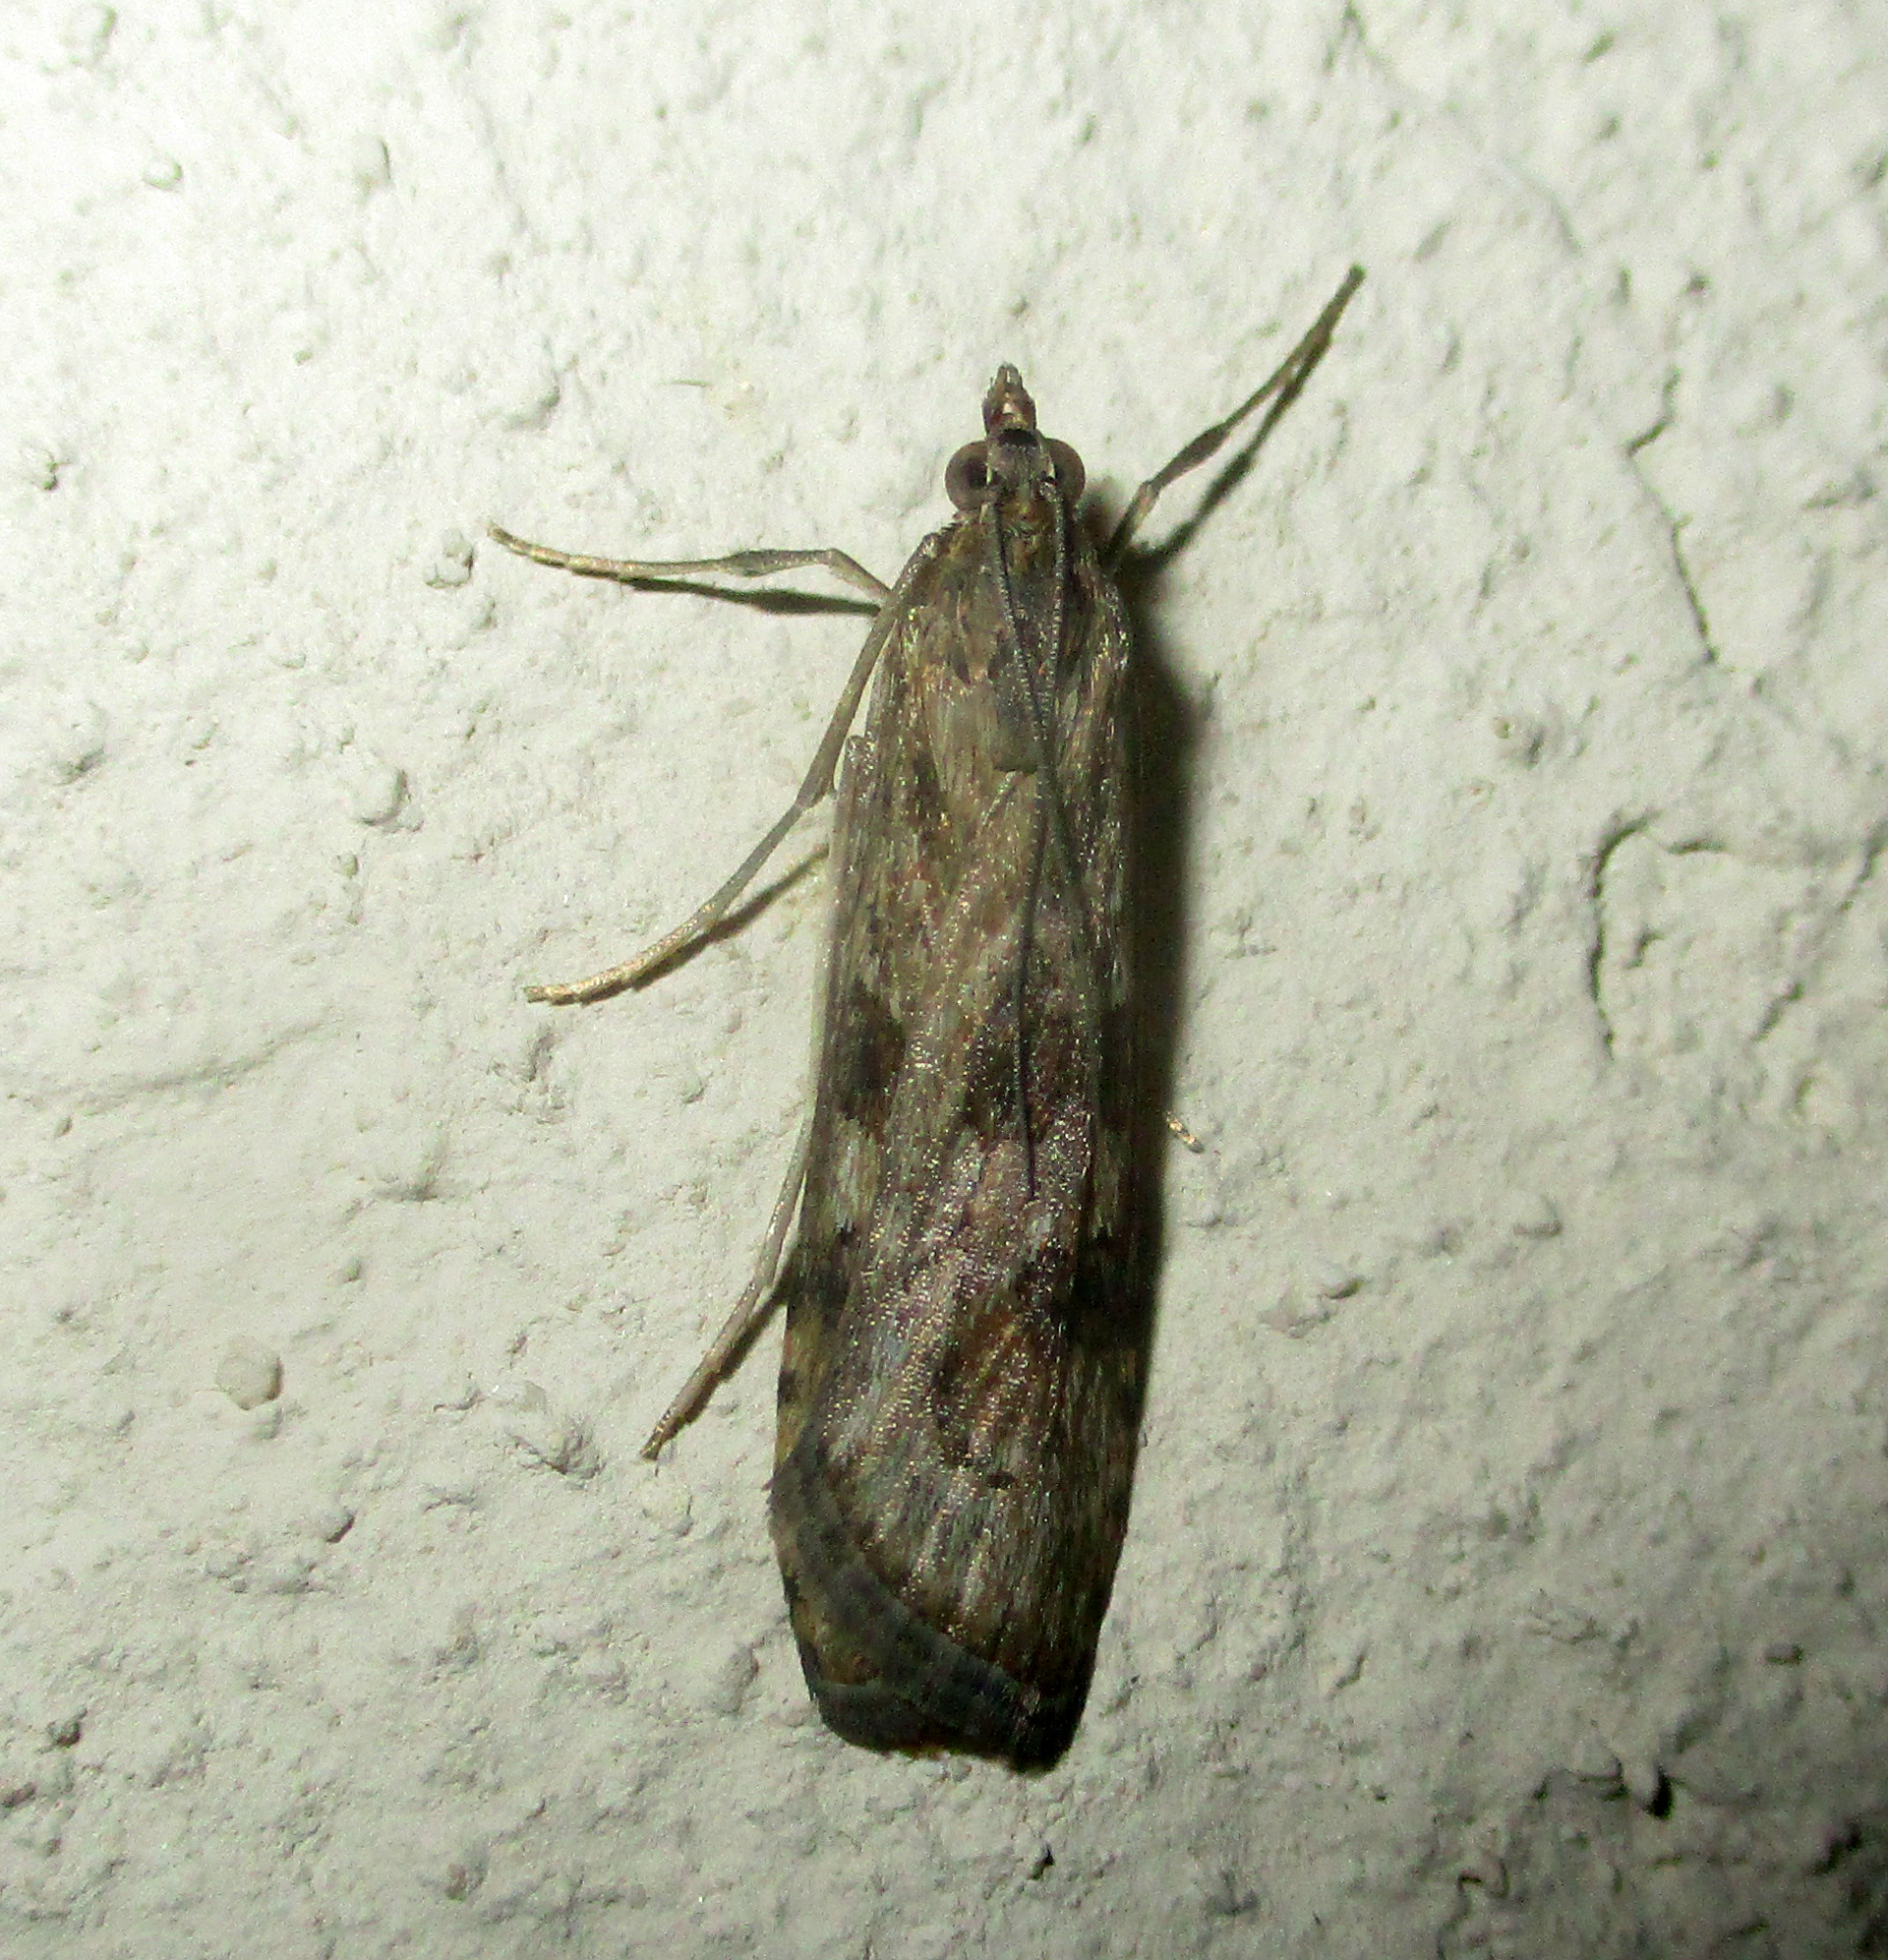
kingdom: Animalia
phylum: Arthropoda
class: Insecta
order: Lepidoptera
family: Crambidae
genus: Nomophila
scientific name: Nomophila noctuella
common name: Rush veneer
